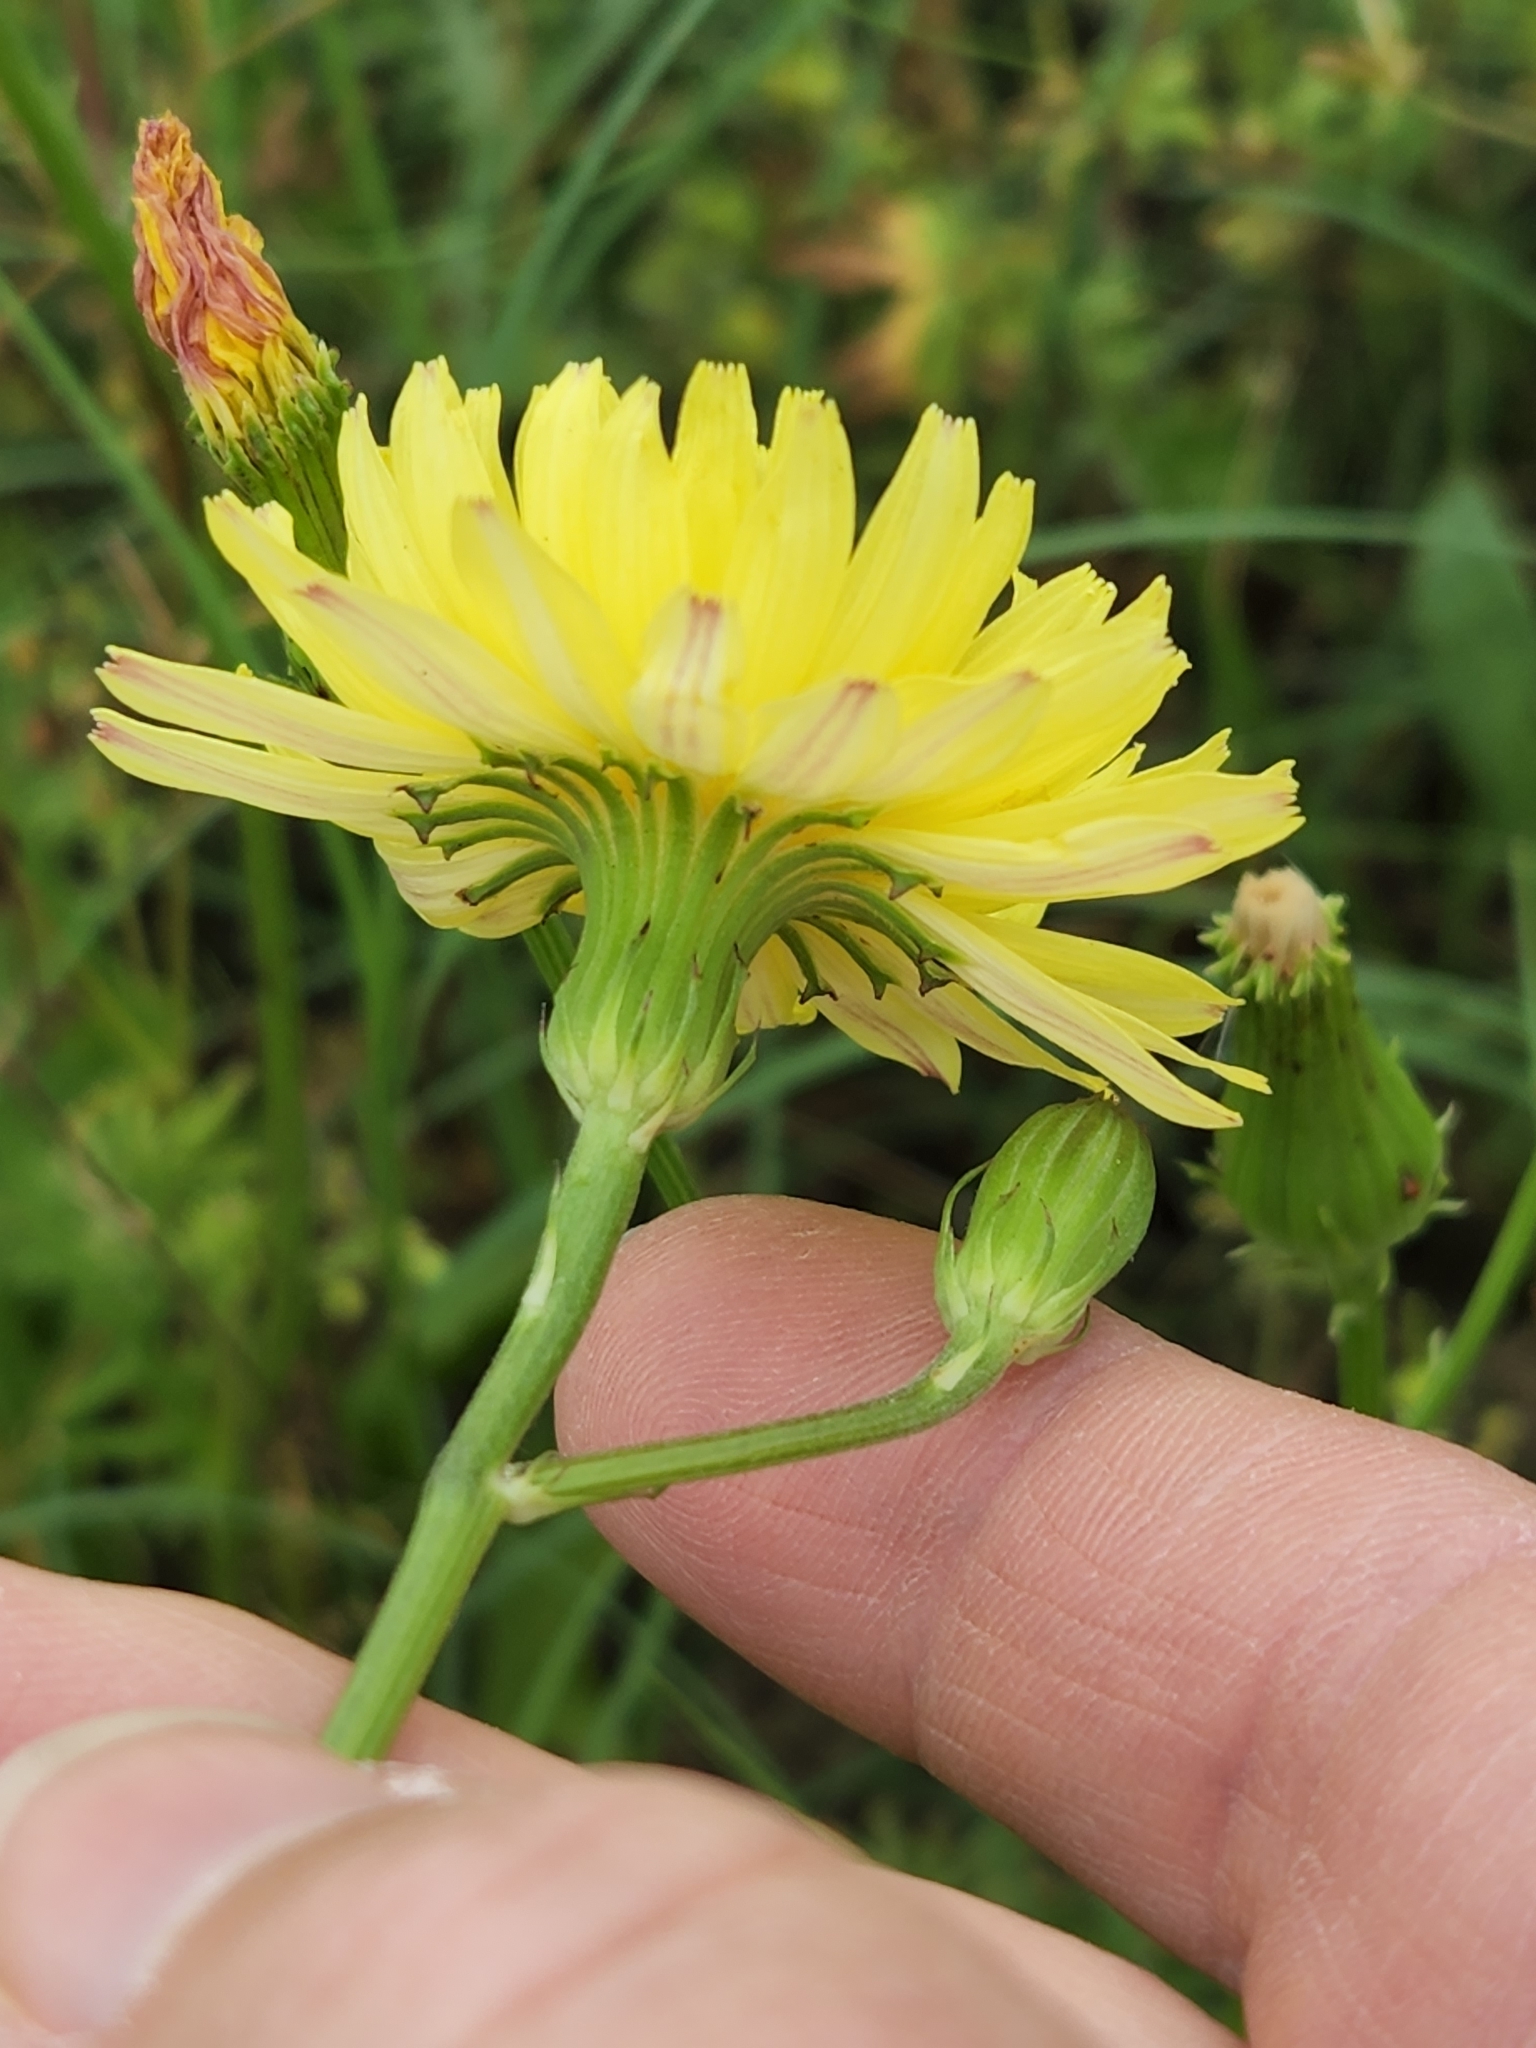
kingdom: Plantae
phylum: Tracheophyta
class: Magnoliopsida
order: Asterales
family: Asteraceae
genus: Pyrrhopappus
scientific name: Pyrrhopappus pauciflorus
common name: Texas false dandelion
